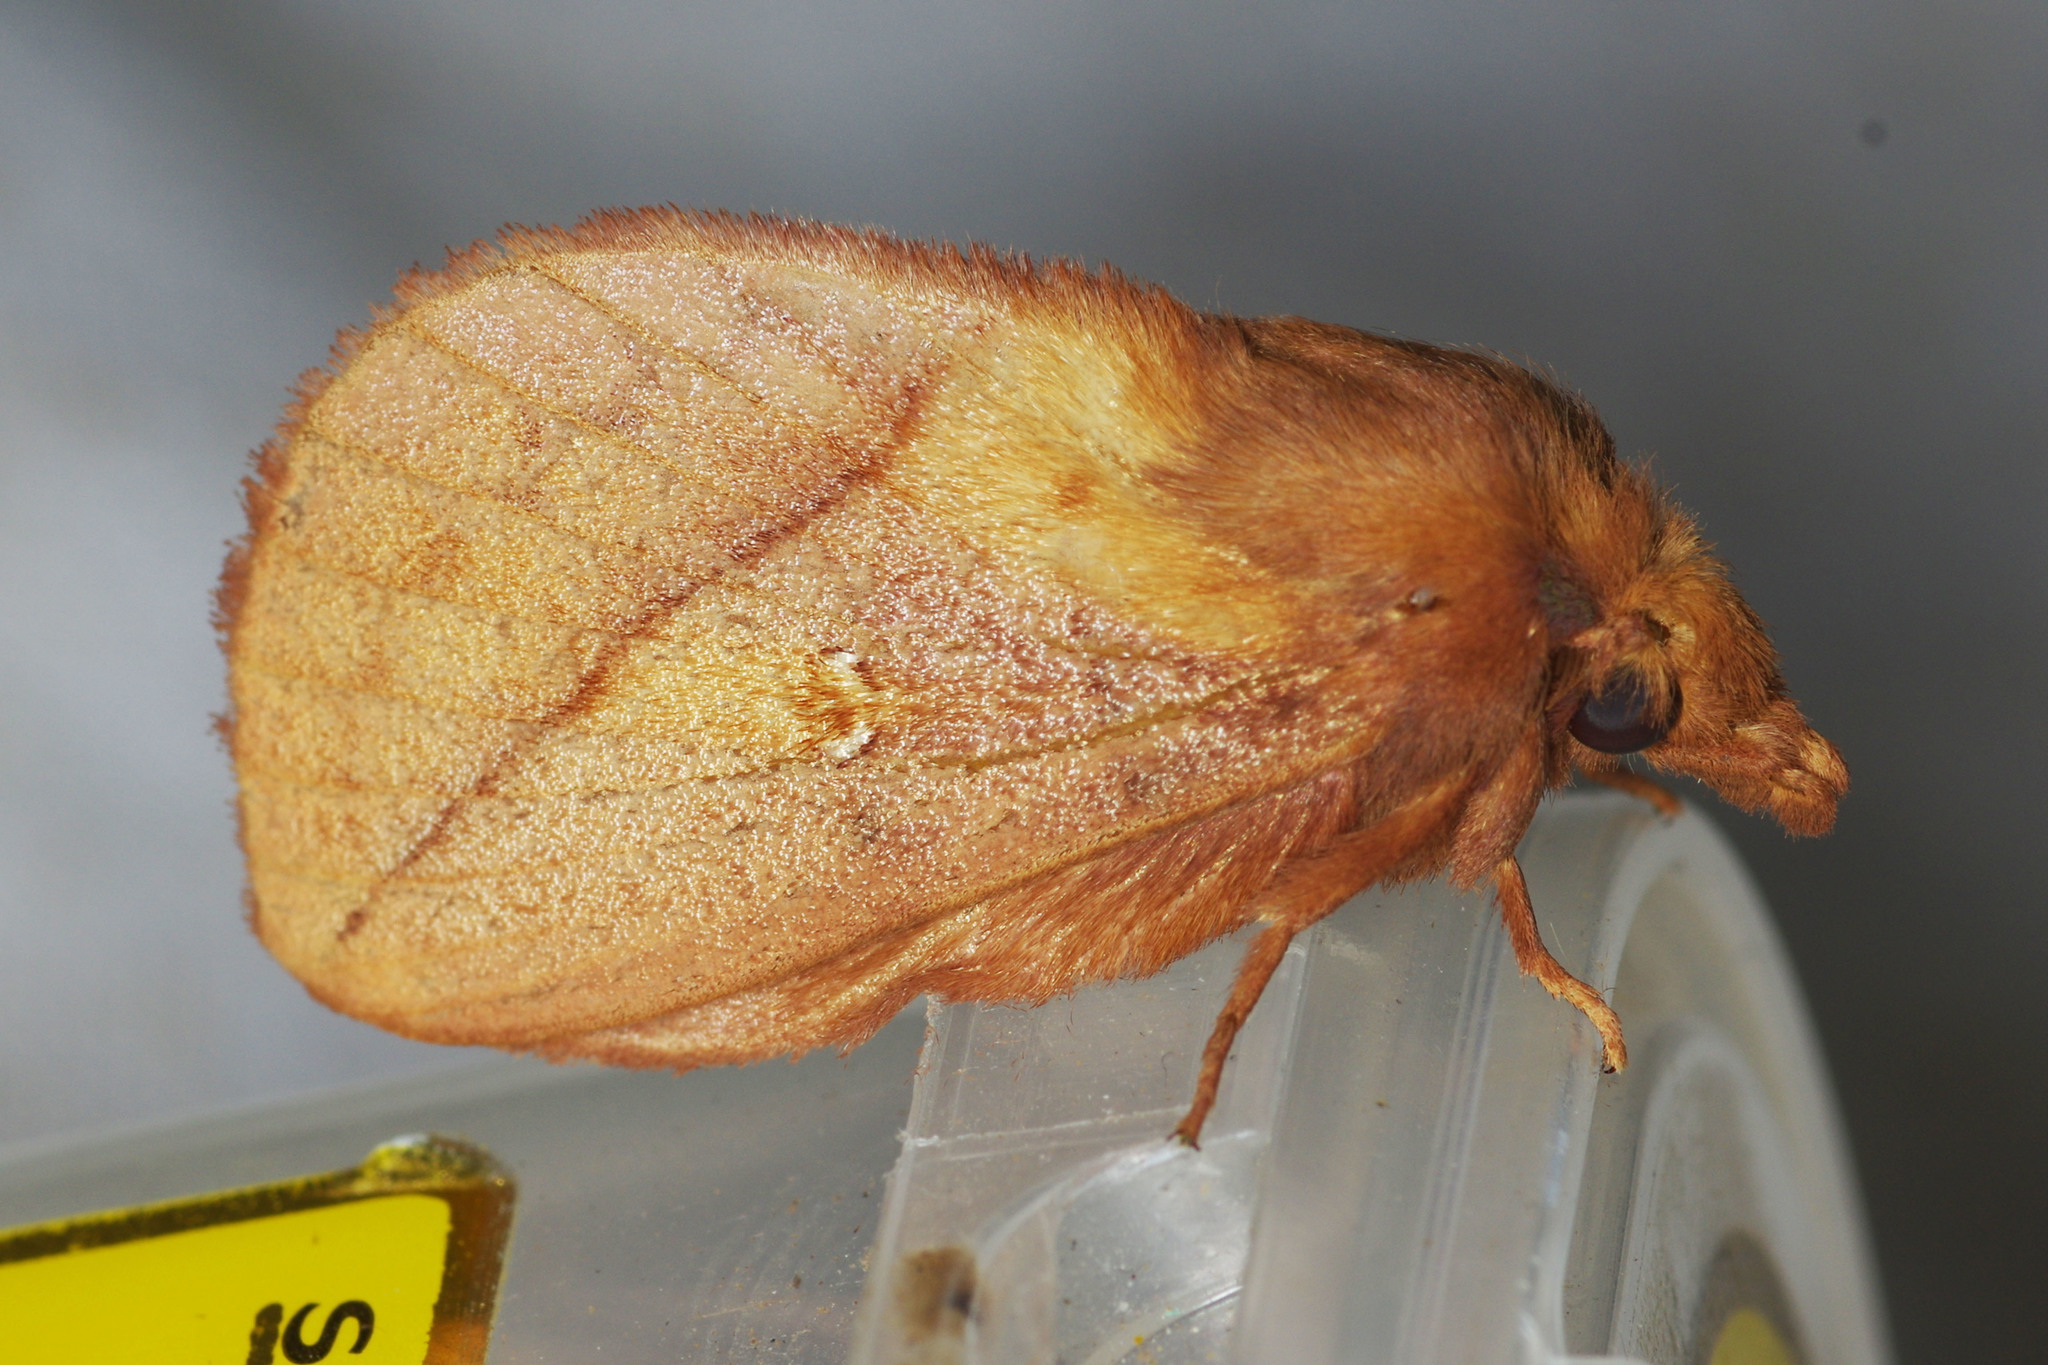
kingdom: Animalia
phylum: Arthropoda
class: Insecta
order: Lepidoptera
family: Lasiocampidae
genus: Euthrix
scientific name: Euthrix potatoria
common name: Drinker
